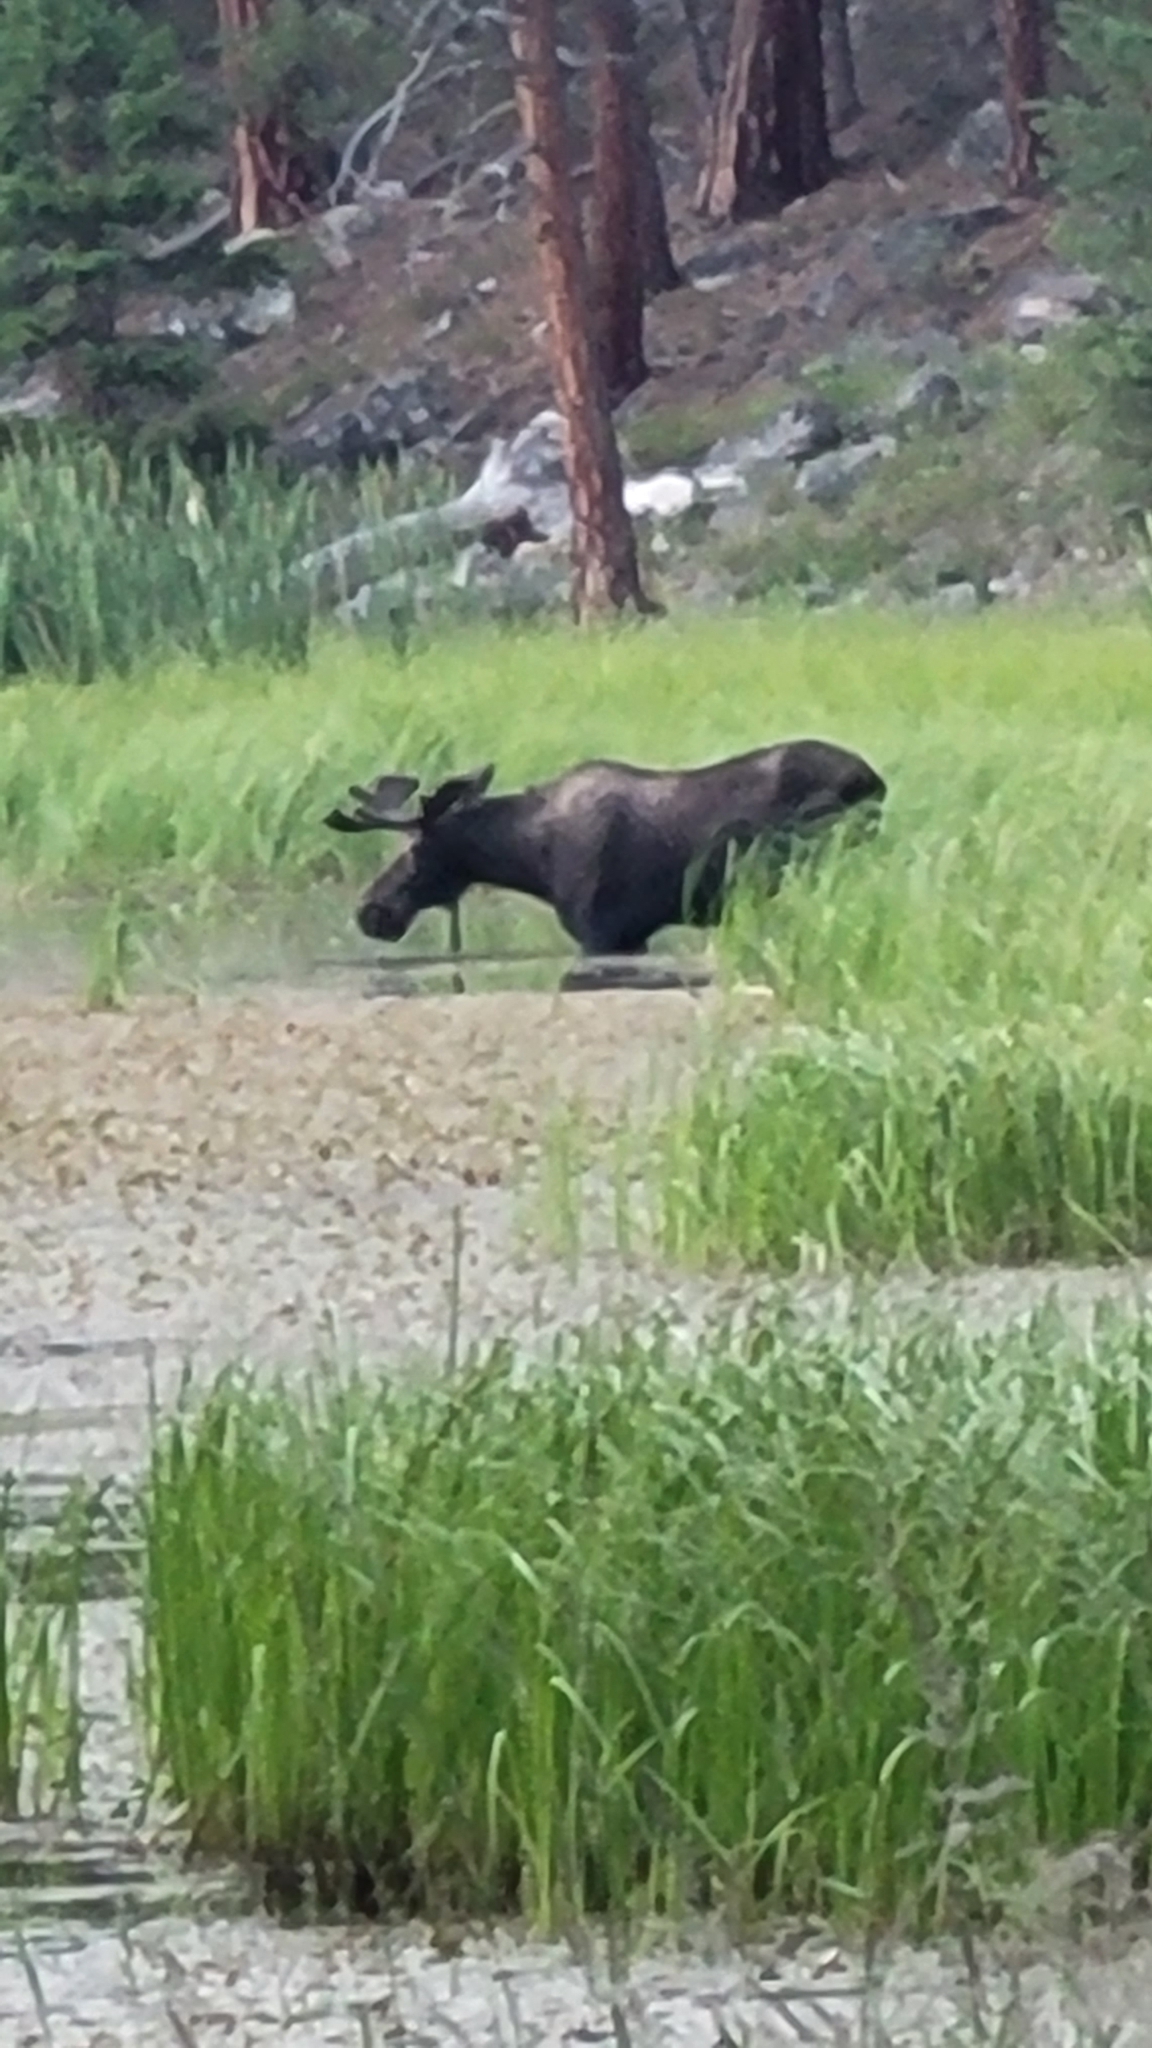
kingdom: Animalia
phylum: Chordata
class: Mammalia
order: Artiodactyla
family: Cervidae
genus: Alces
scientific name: Alces alces
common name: Moose
